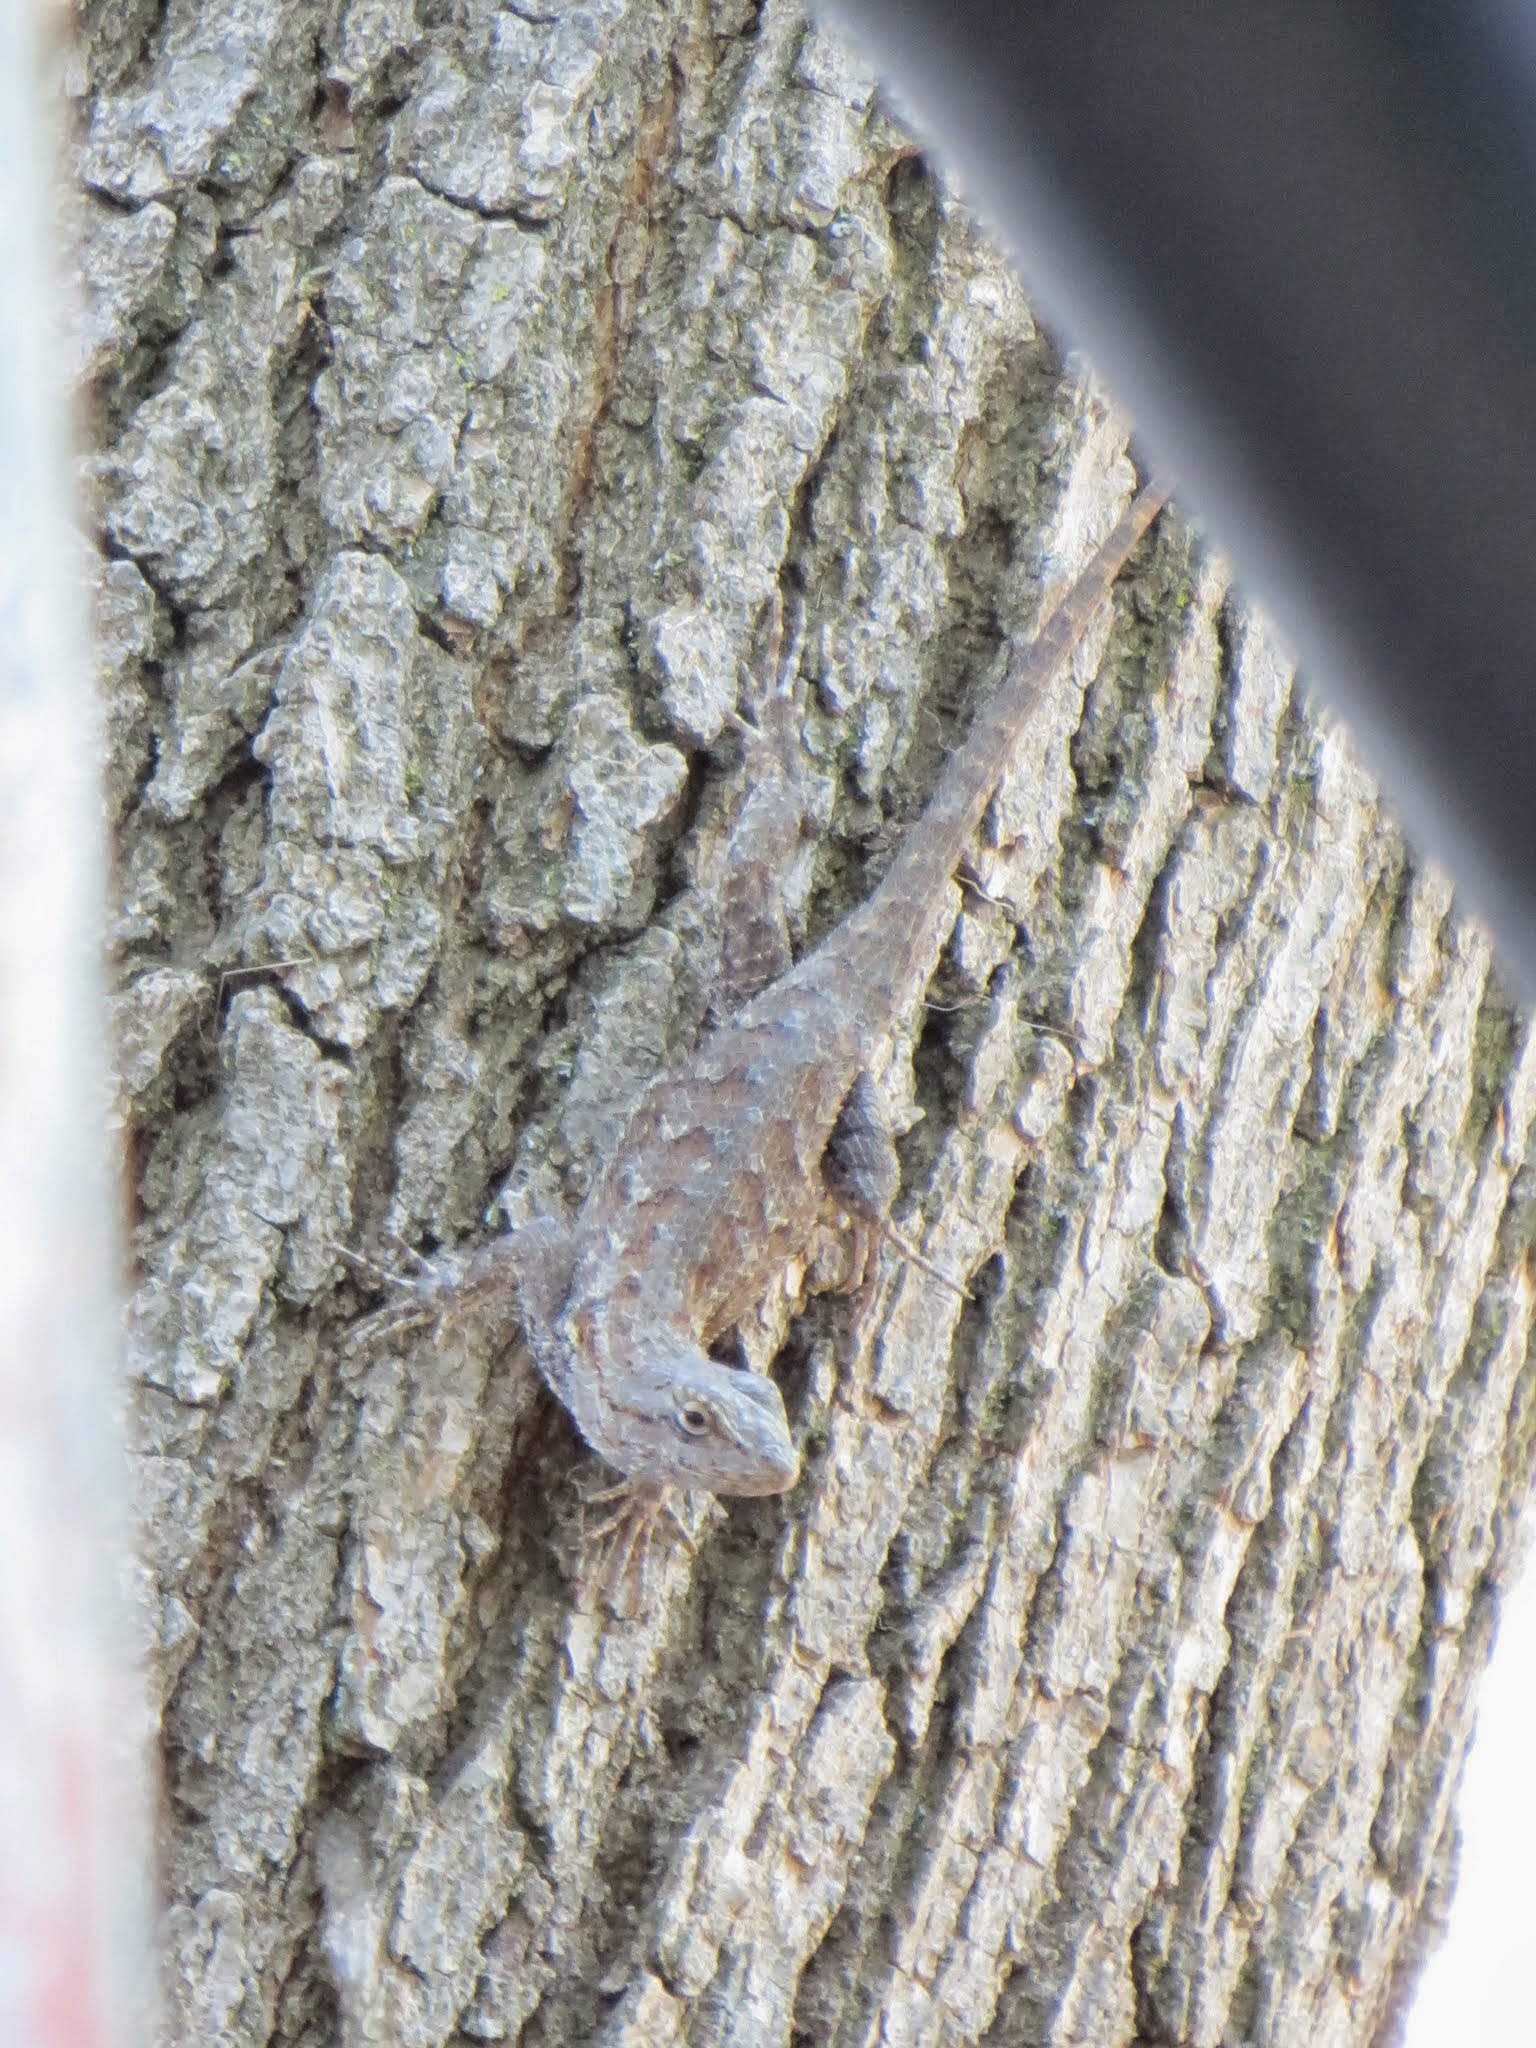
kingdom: Animalia
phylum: Chordata
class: Squamata
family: Phrynosomatidae
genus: Sceloporus
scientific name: Sceloporus occidentalis
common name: Western fence lizard
